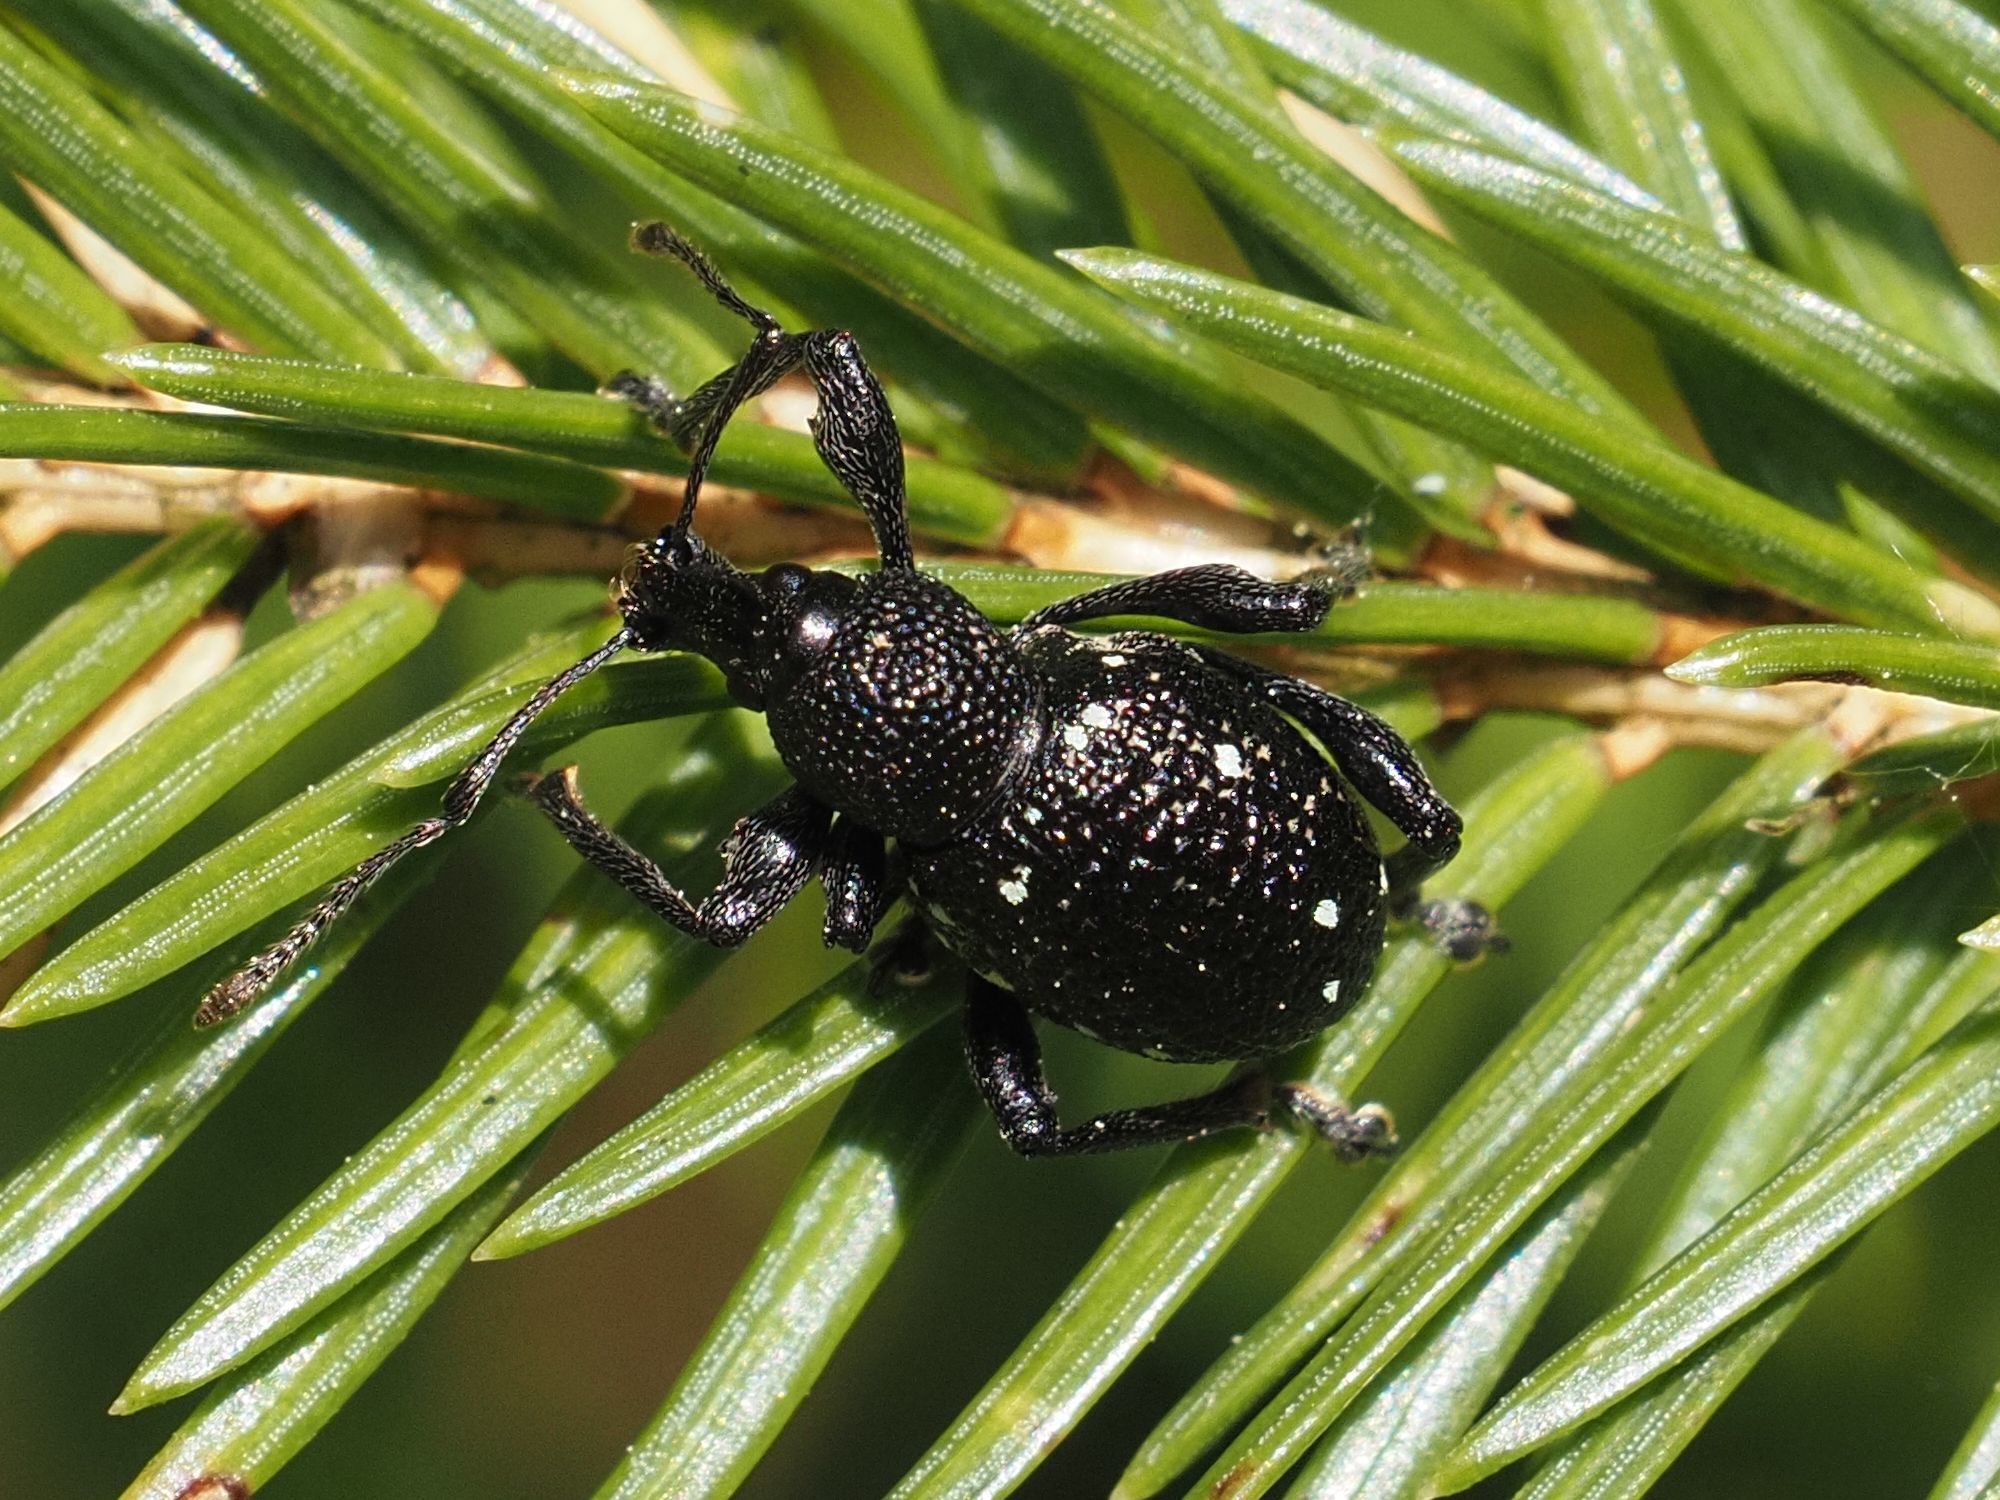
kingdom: Animalia
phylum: Arthropoda
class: Insecta
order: Coleoptera
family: Curculionidae
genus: Otiorhynchus
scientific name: Otiorhynchus gemmatus
